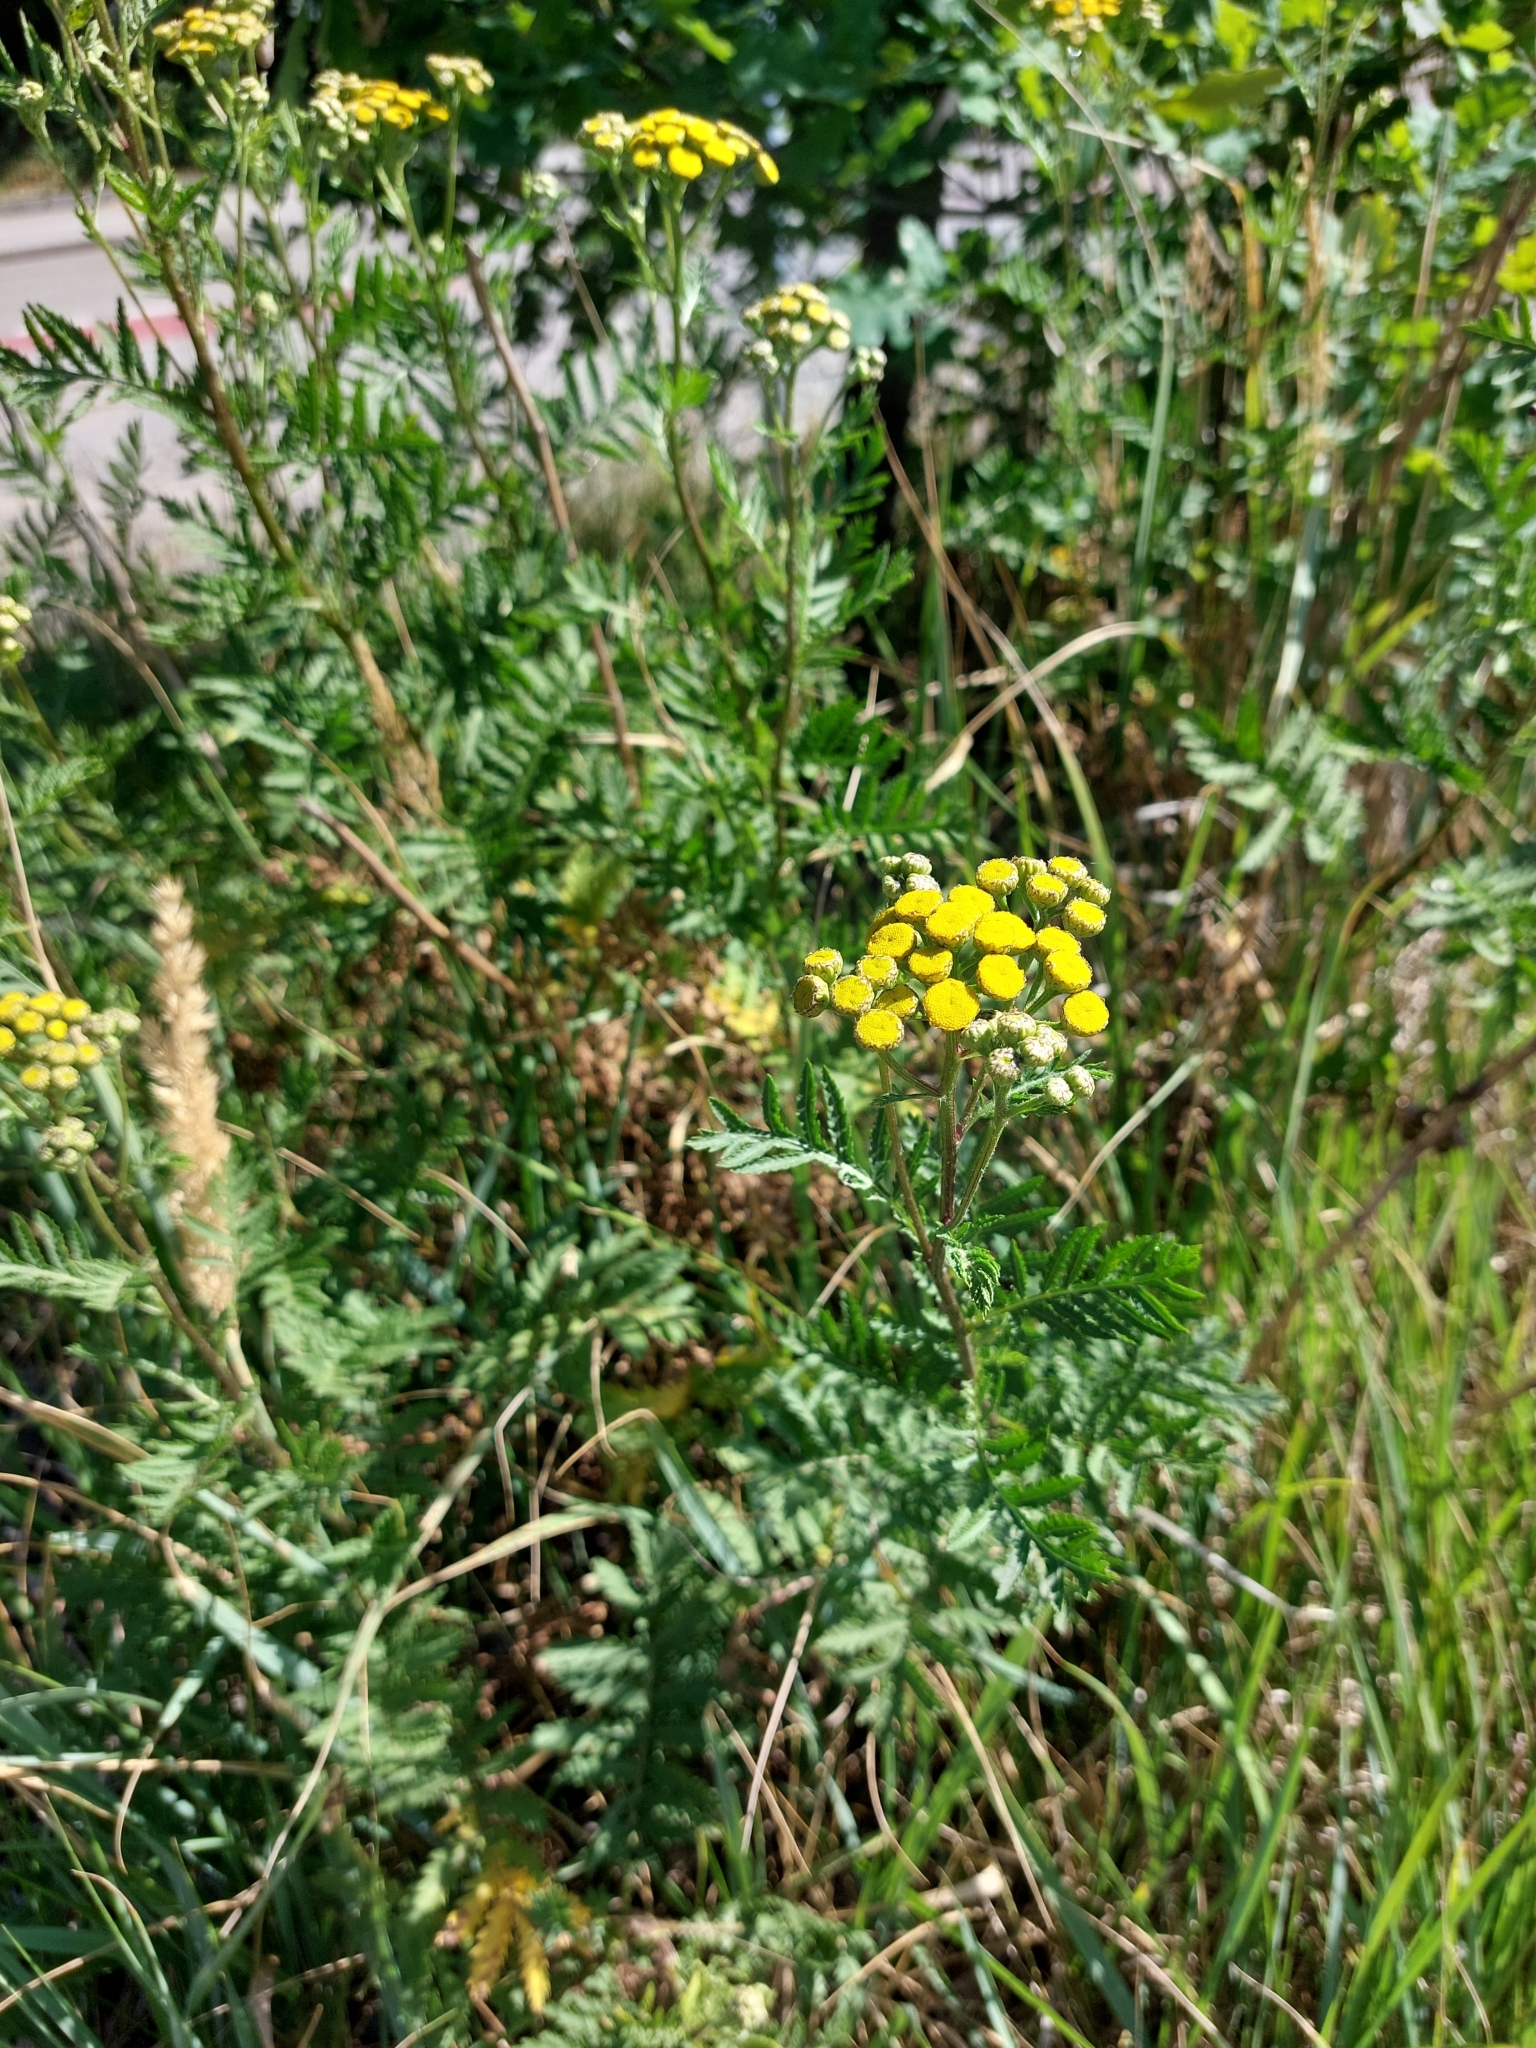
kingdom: Plantae
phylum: Tracheophyta
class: Magnoliopsida
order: Asterales
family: Asteraceae
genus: Tanacetum
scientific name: Tanacetum vulgare
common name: Common tansy
